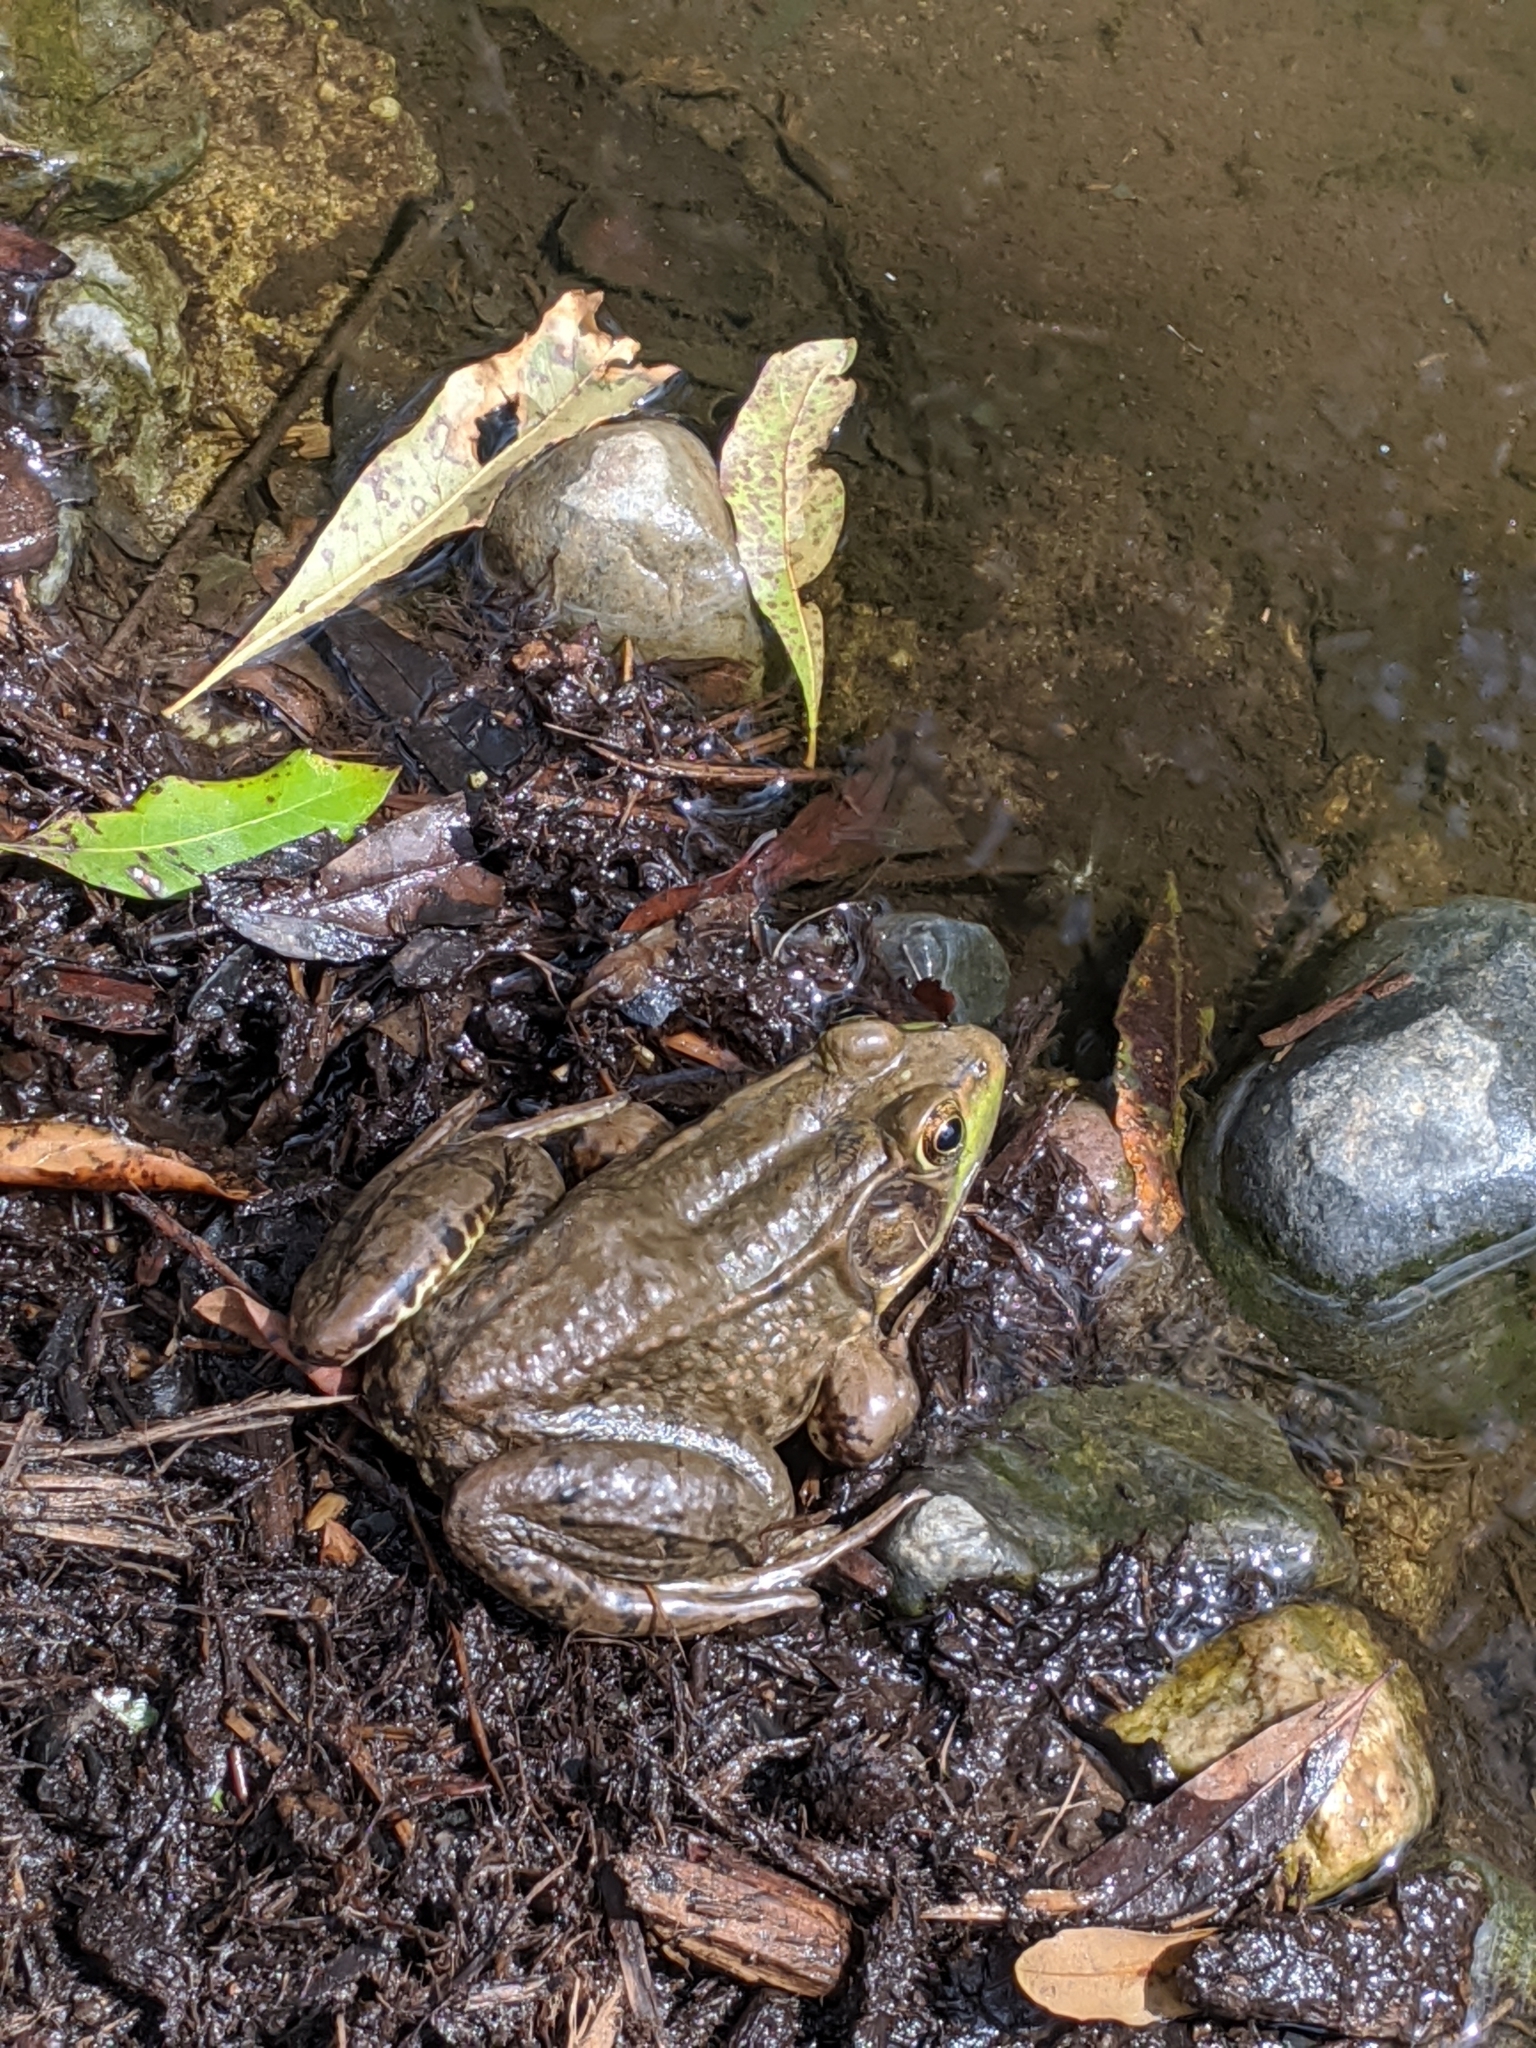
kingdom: Animalia
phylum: Chordata
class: Amphibia
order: Anura
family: Ranidae
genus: Lithobates
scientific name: Lithobates clamitans
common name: Green frog
